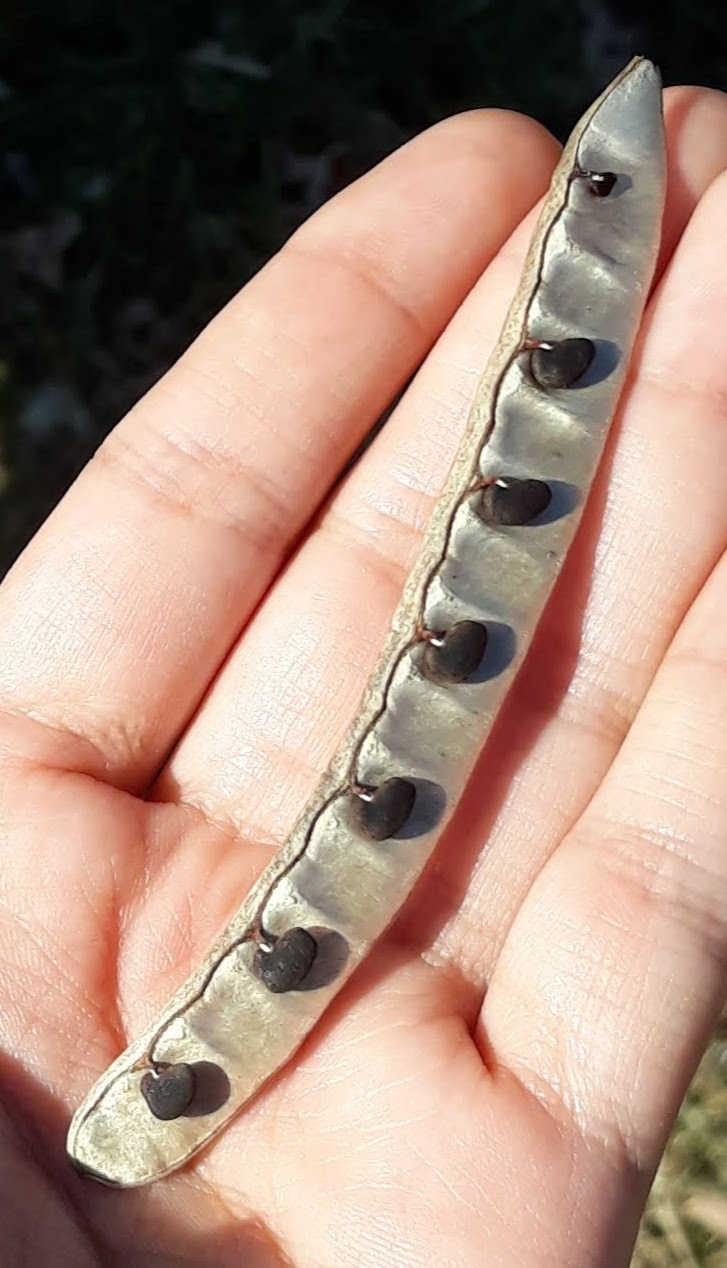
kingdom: Plantae
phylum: Tracheophyta
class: Magnoliopsida
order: Fabales
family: Fabaceae
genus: Robinia
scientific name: Robinia pseudoacacia
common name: Black locust
